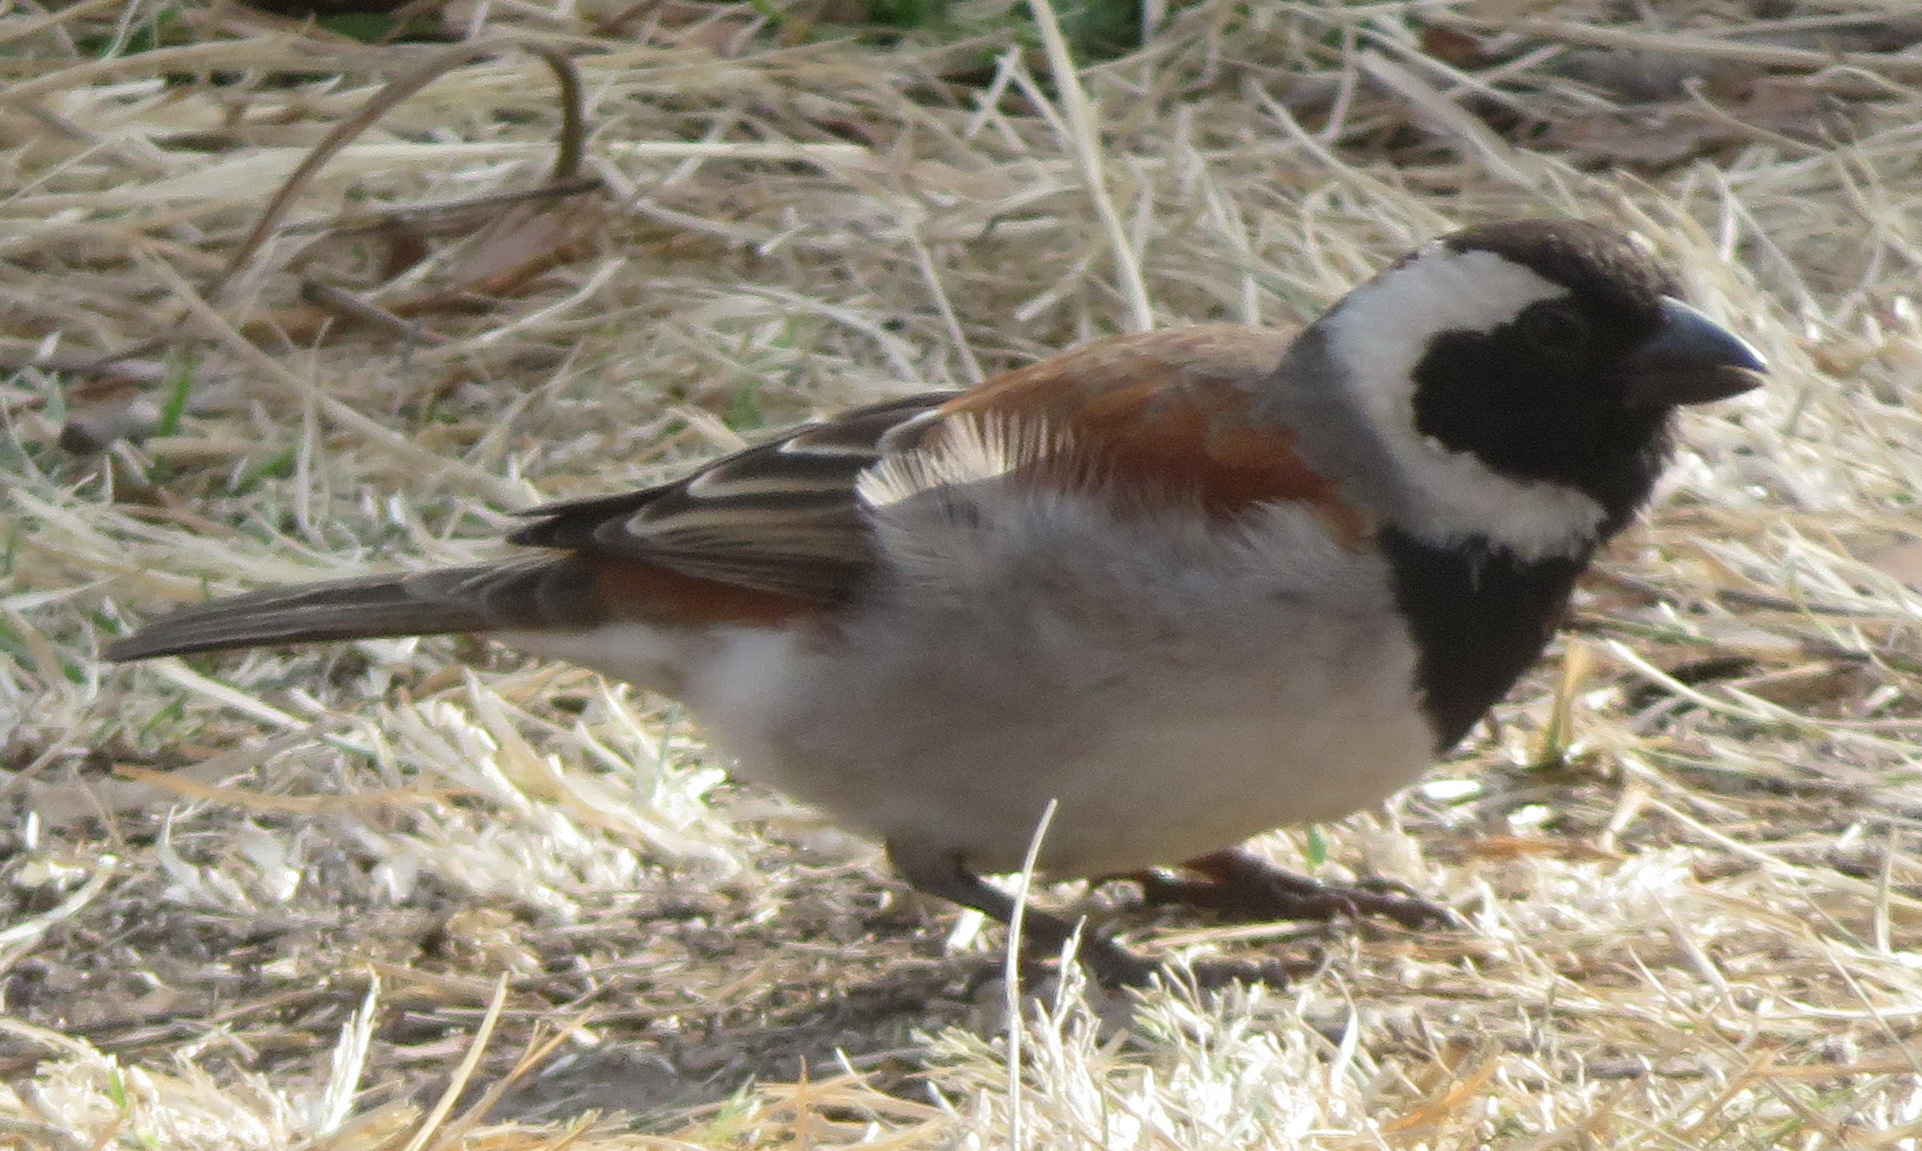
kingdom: Animalia
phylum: Chordata
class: Aves
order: Passeriformes
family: Passeridae
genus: Passer
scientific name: Passer melanurus
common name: Cape sparrow
